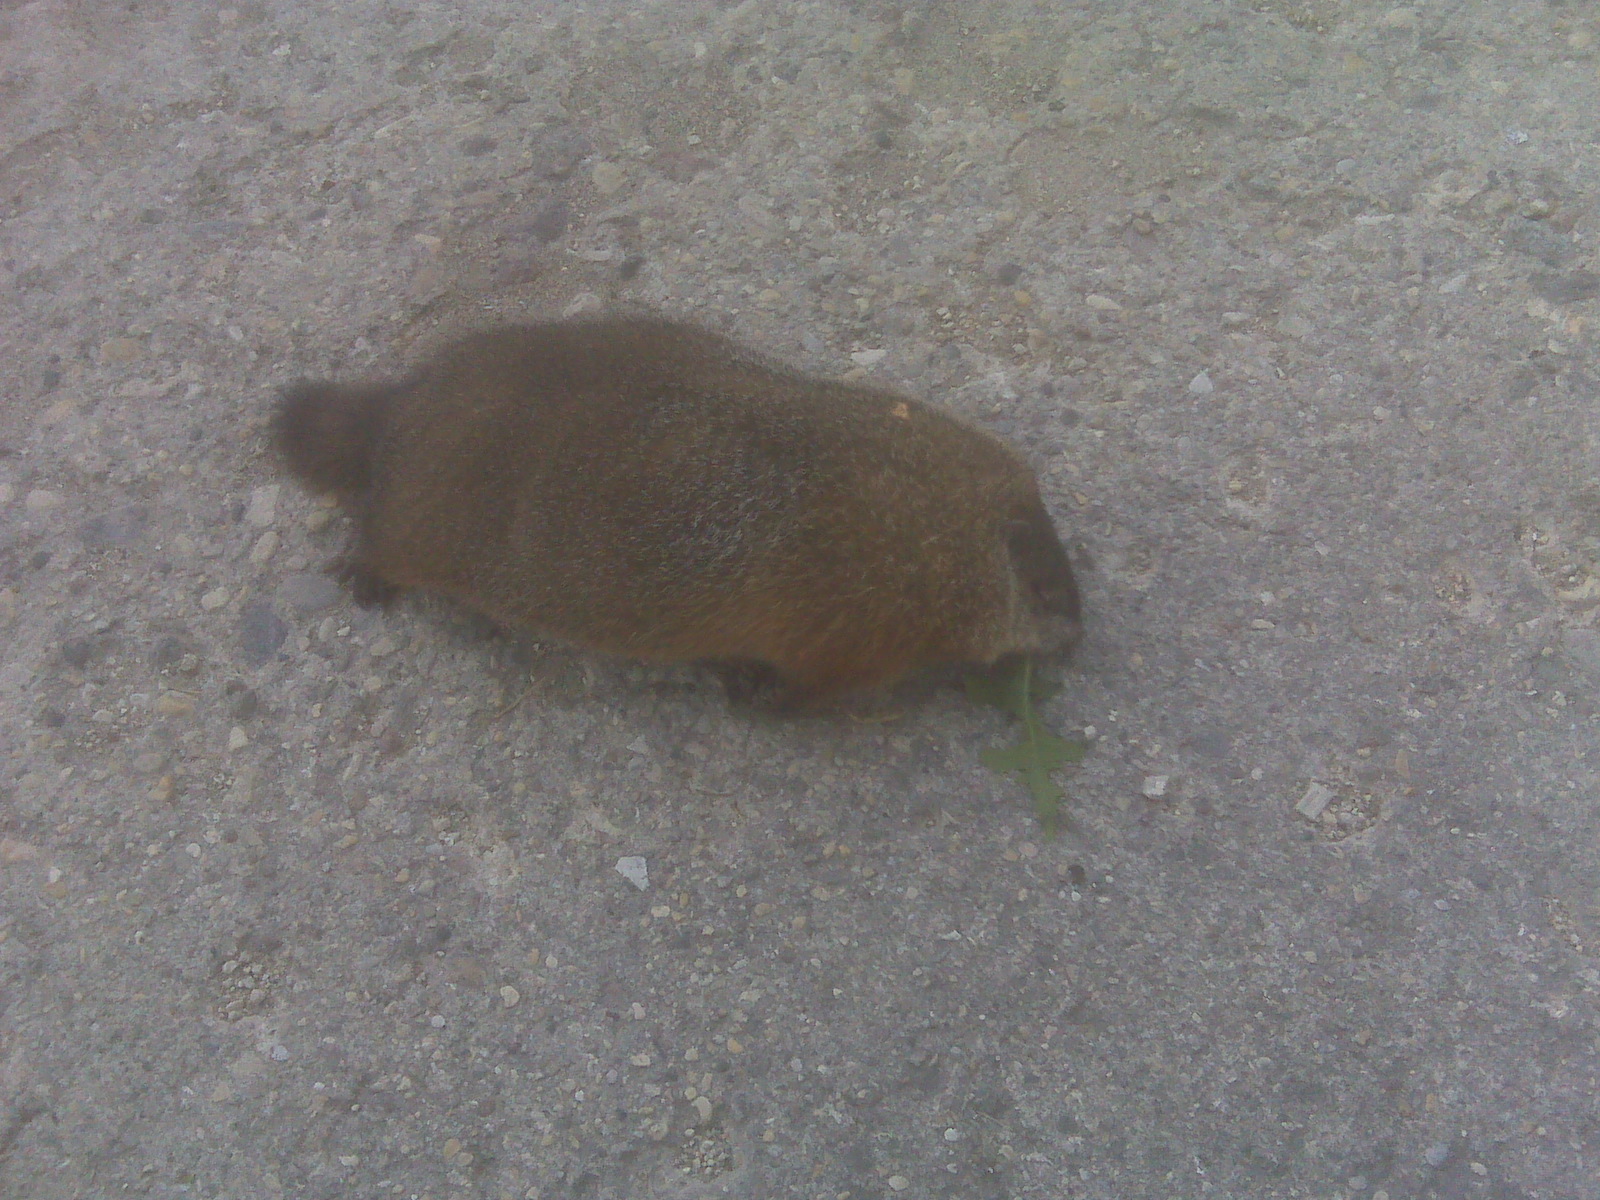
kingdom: Animalia
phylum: Chordata
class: Mammalia
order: Rodentia
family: Sciuridae
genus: Marmota
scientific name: Marmota monax
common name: Groundhog
